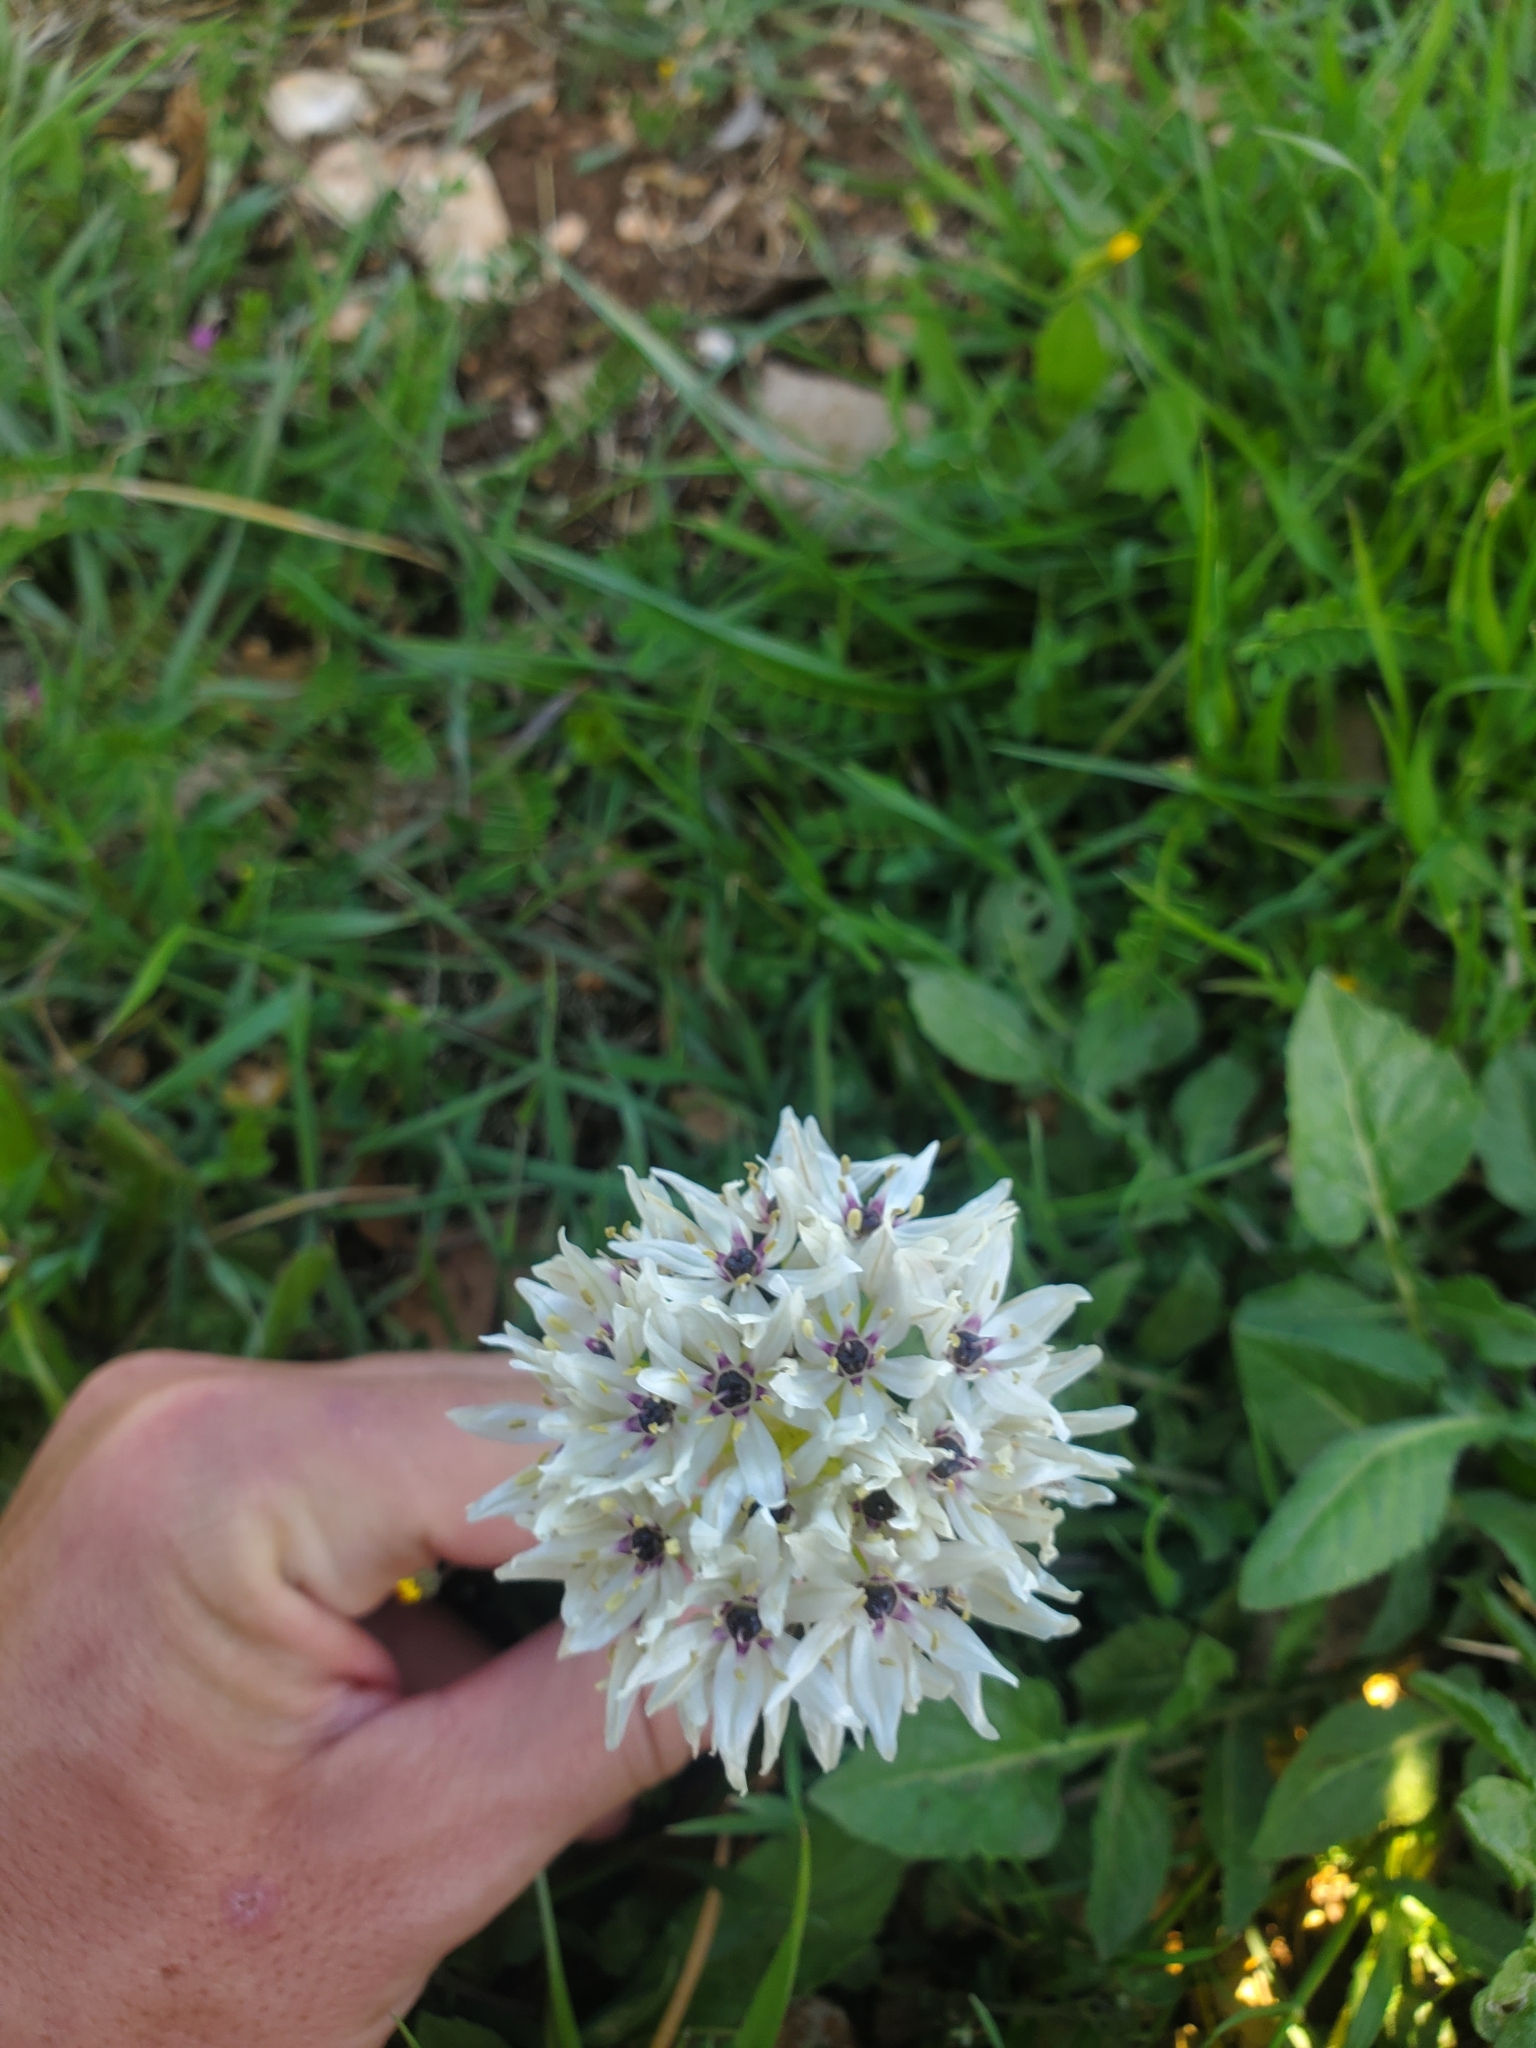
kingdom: Plantae
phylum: Tracheophyta
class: Liliopsida
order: Asparagales
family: Amaryllidaceae
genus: Allium
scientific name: Allium meronense
